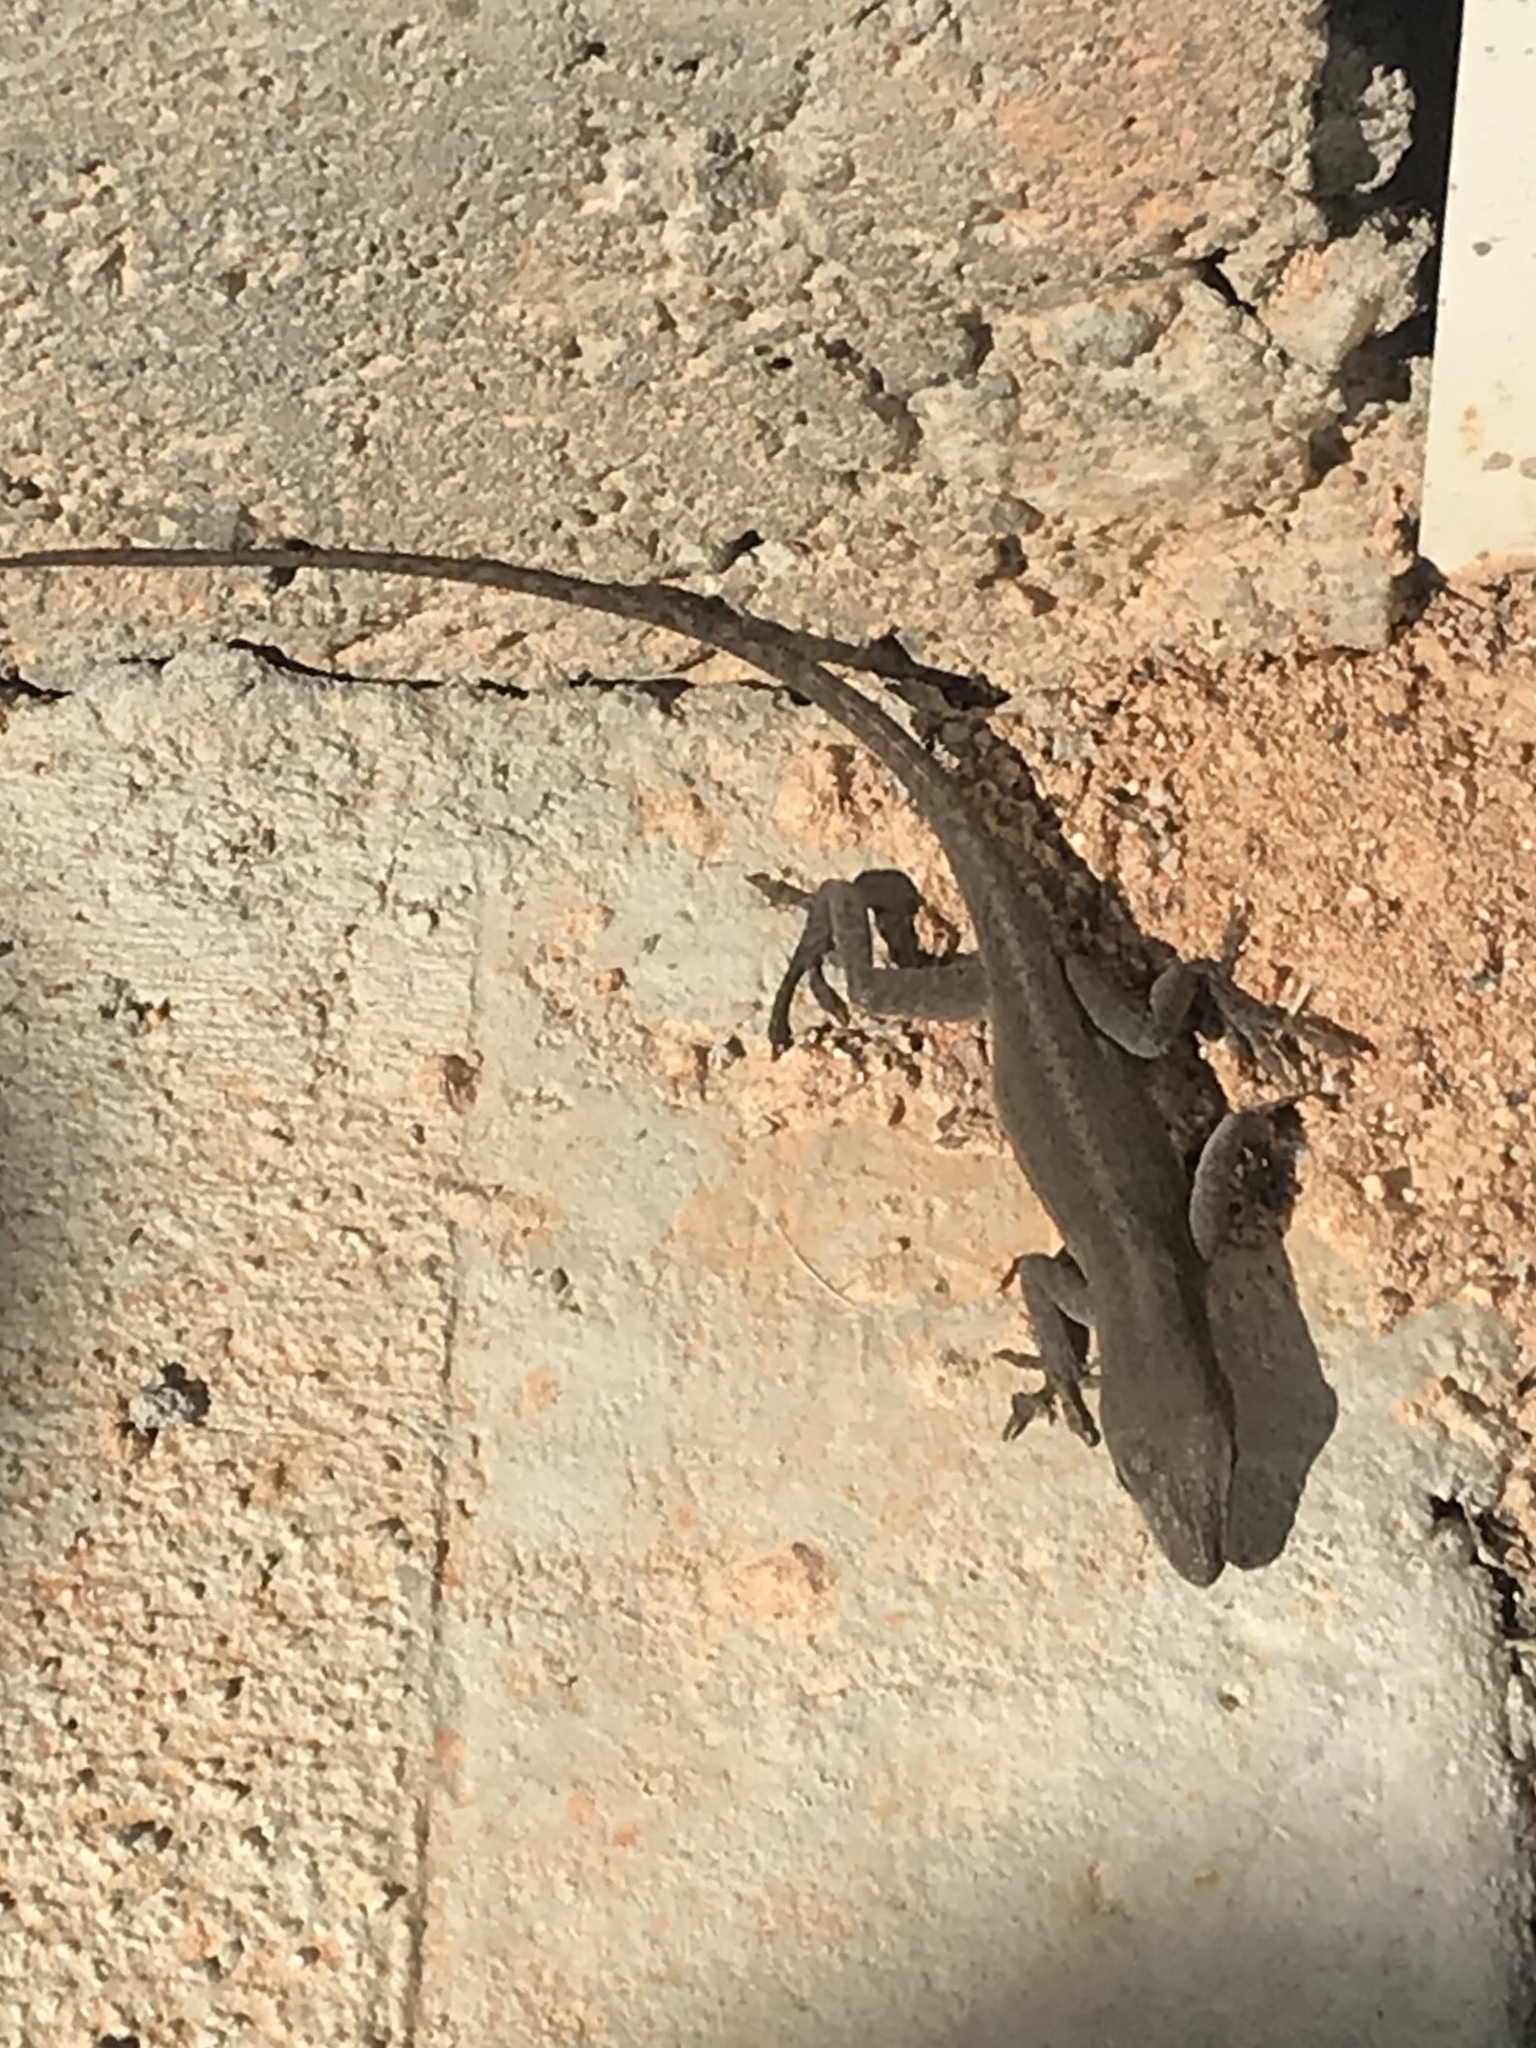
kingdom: Animalia
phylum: Chordata
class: Squamata
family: Dactyloidae
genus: Anolis
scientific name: Anolis carolinensis
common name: Green anole
